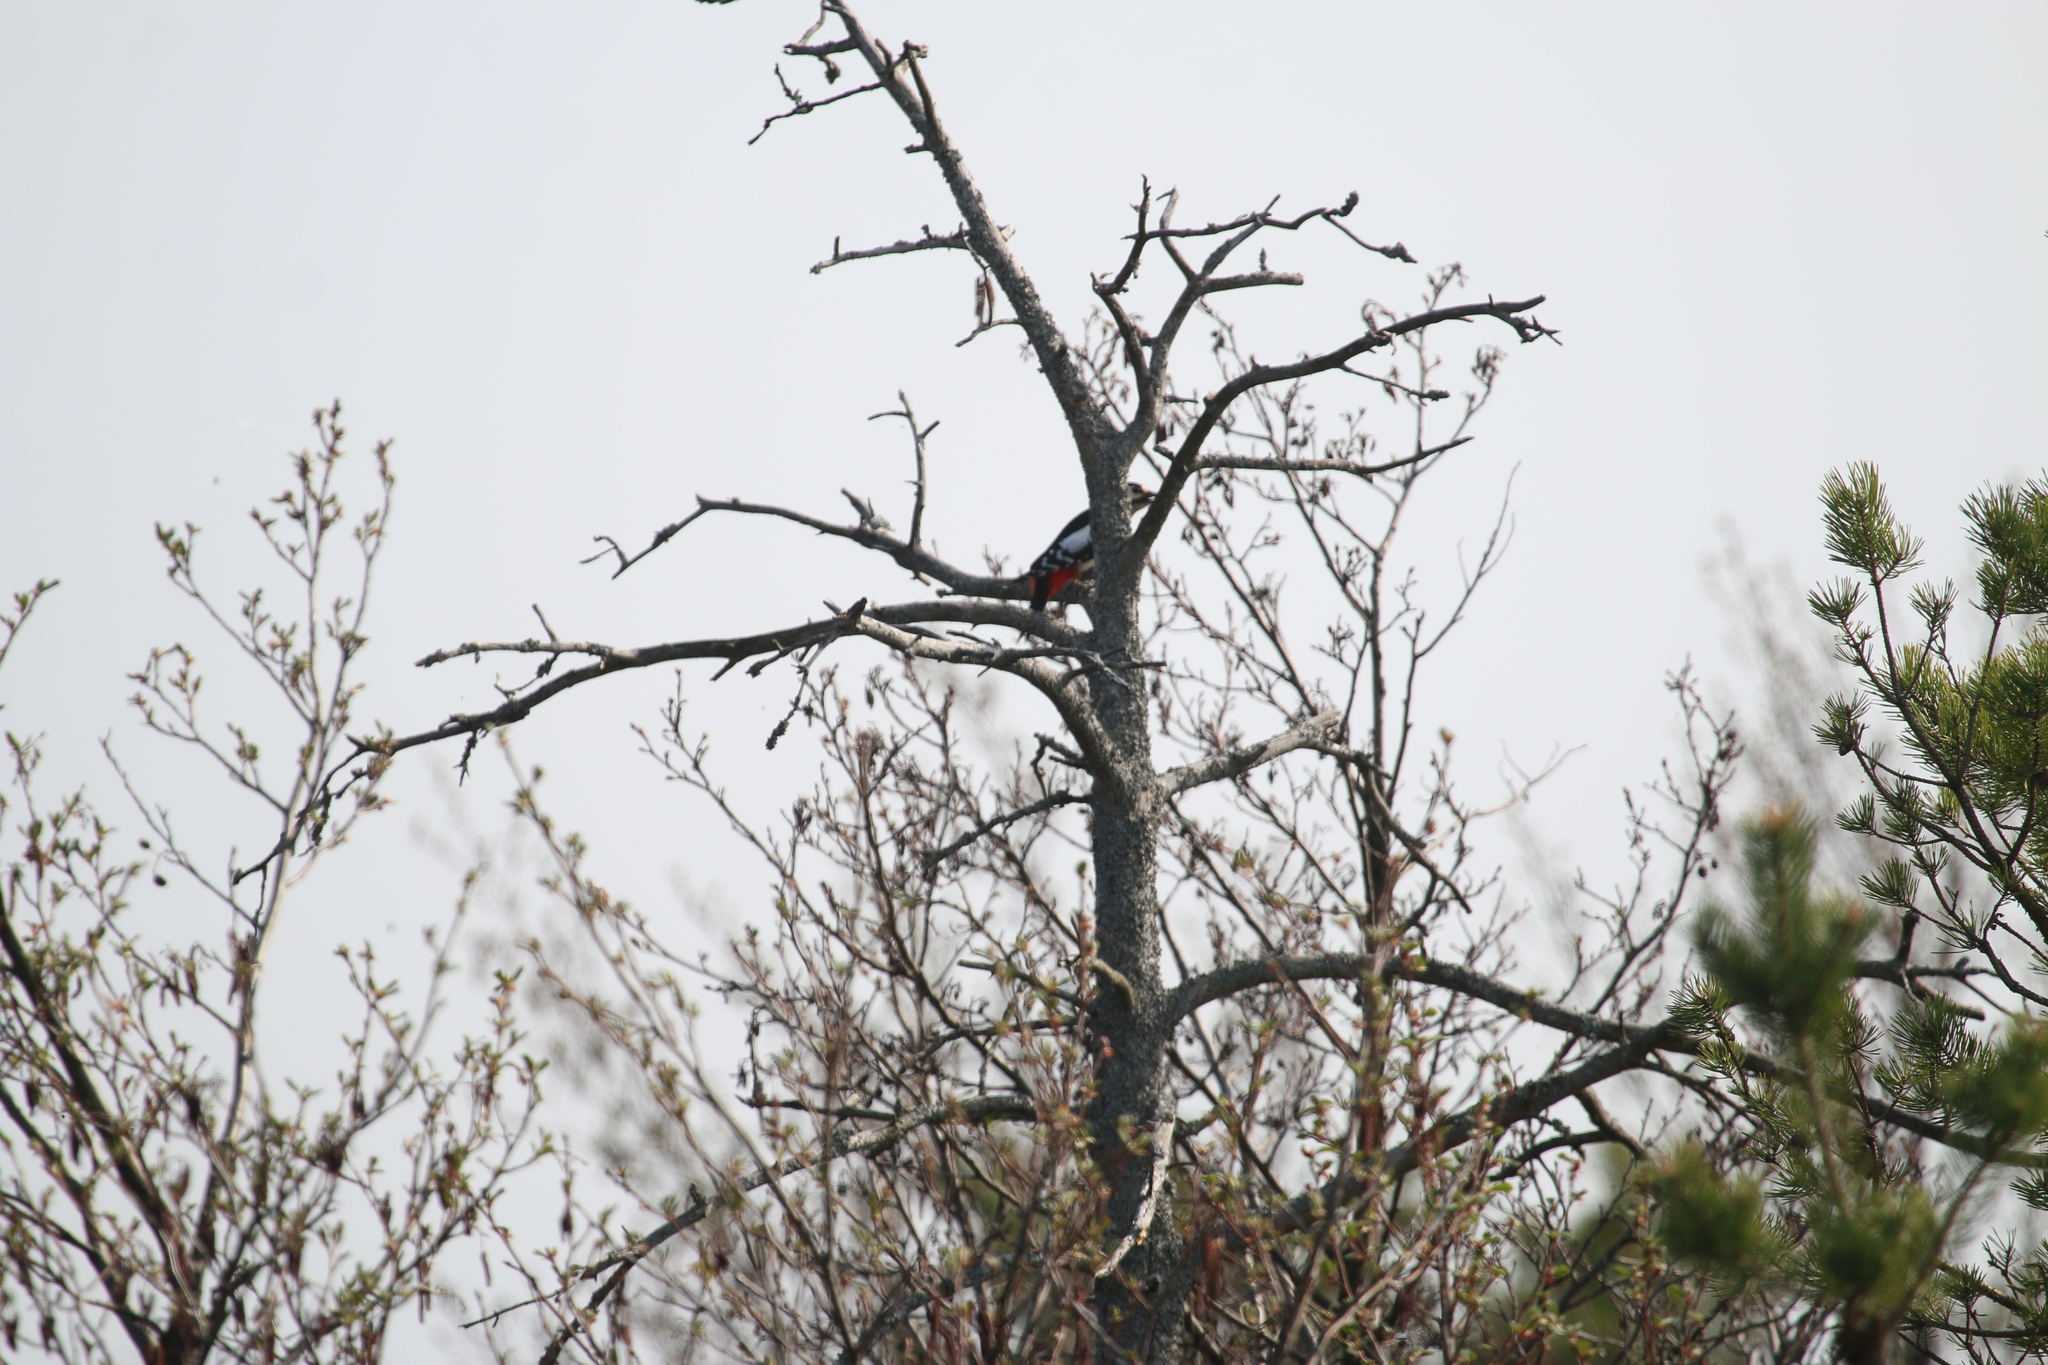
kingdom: Animalia
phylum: Chordata
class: Aves
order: Piciformes
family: Picidae
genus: Dendrocopos
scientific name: Dendrocopos major
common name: Great spotted woodpecker
